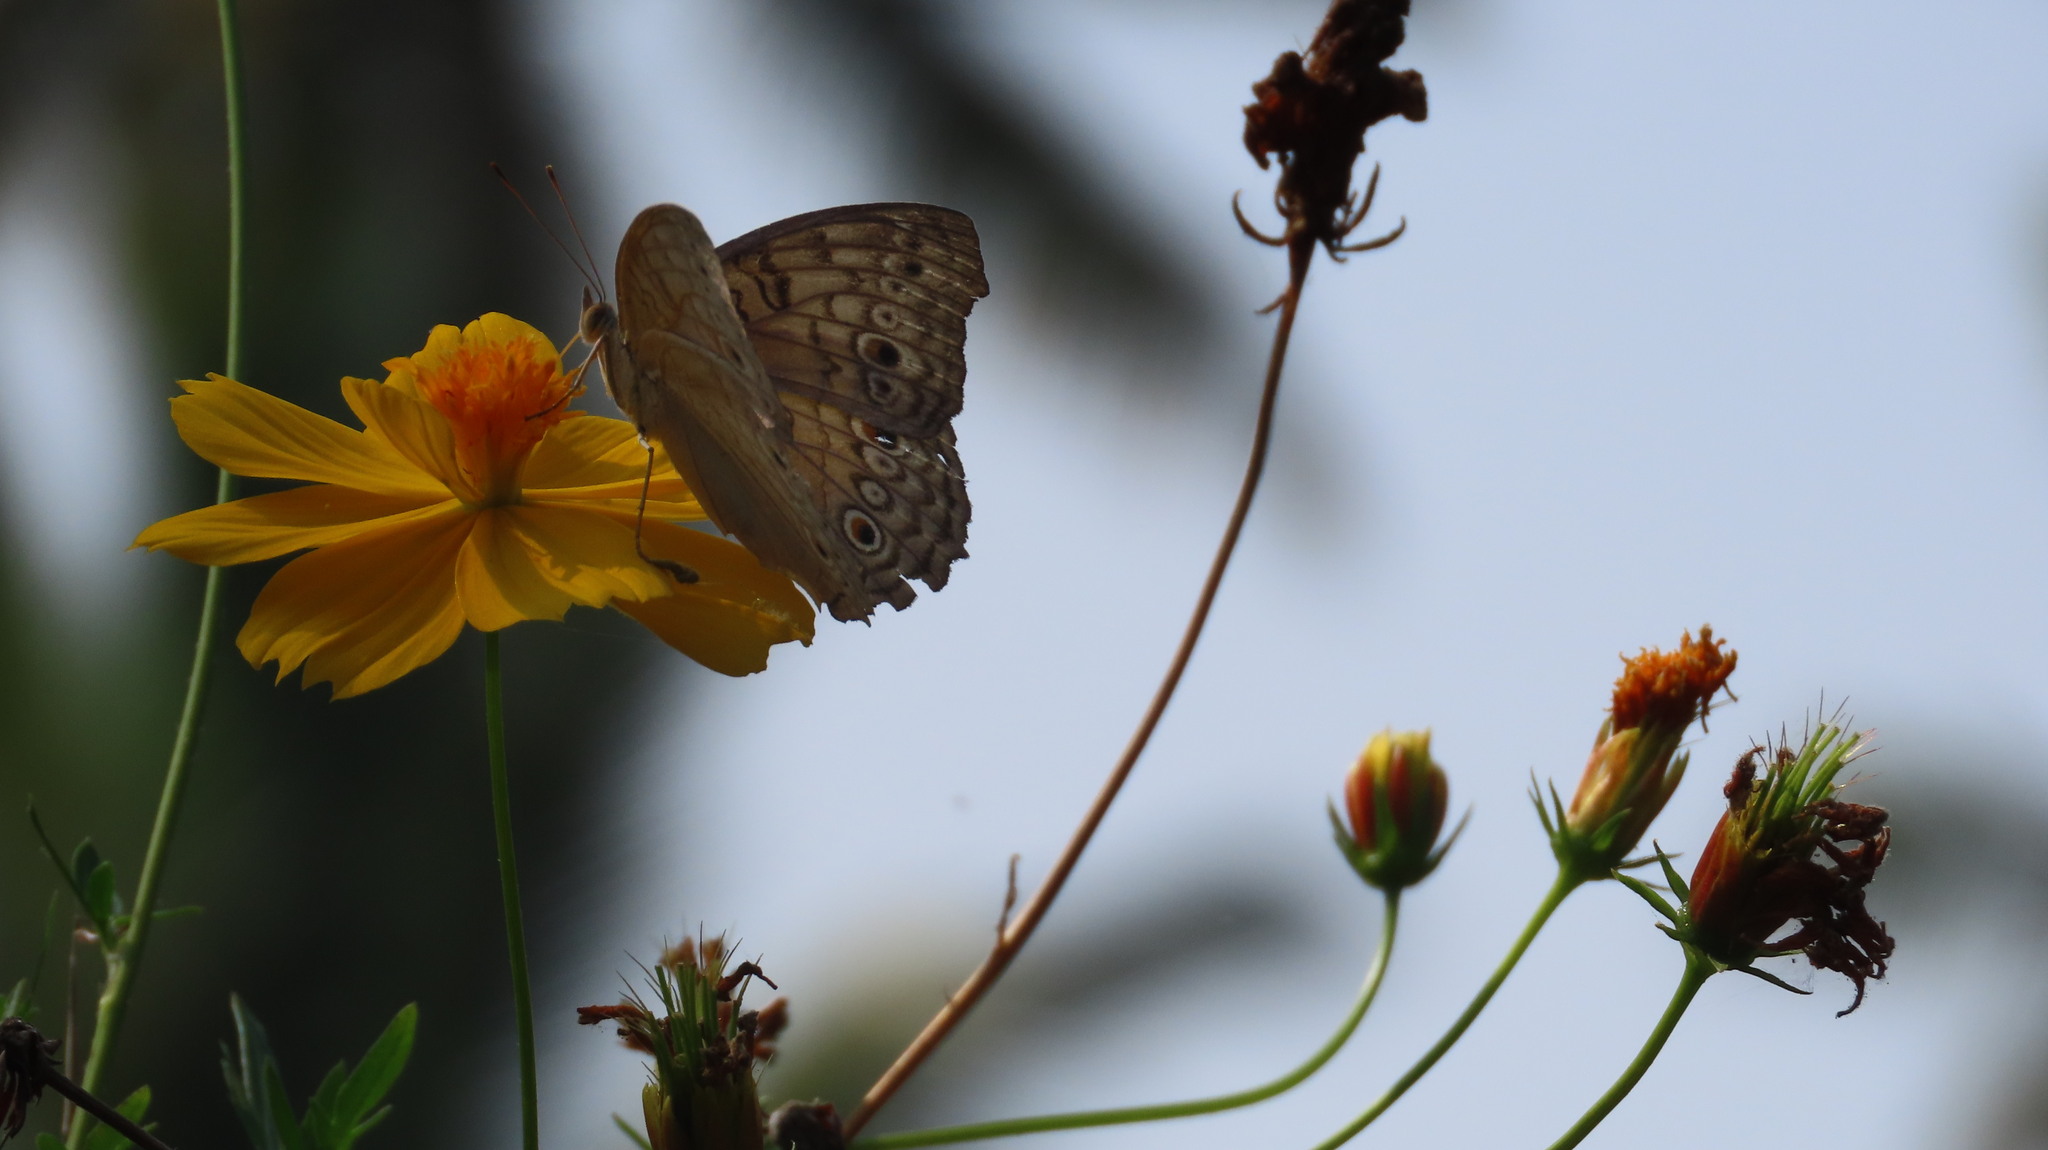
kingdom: Animalia
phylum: Arthropoda
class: Insecta
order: Lepidoptera
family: Nymphalidae
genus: Junonia
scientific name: Junonia atlites
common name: Grey pansy
